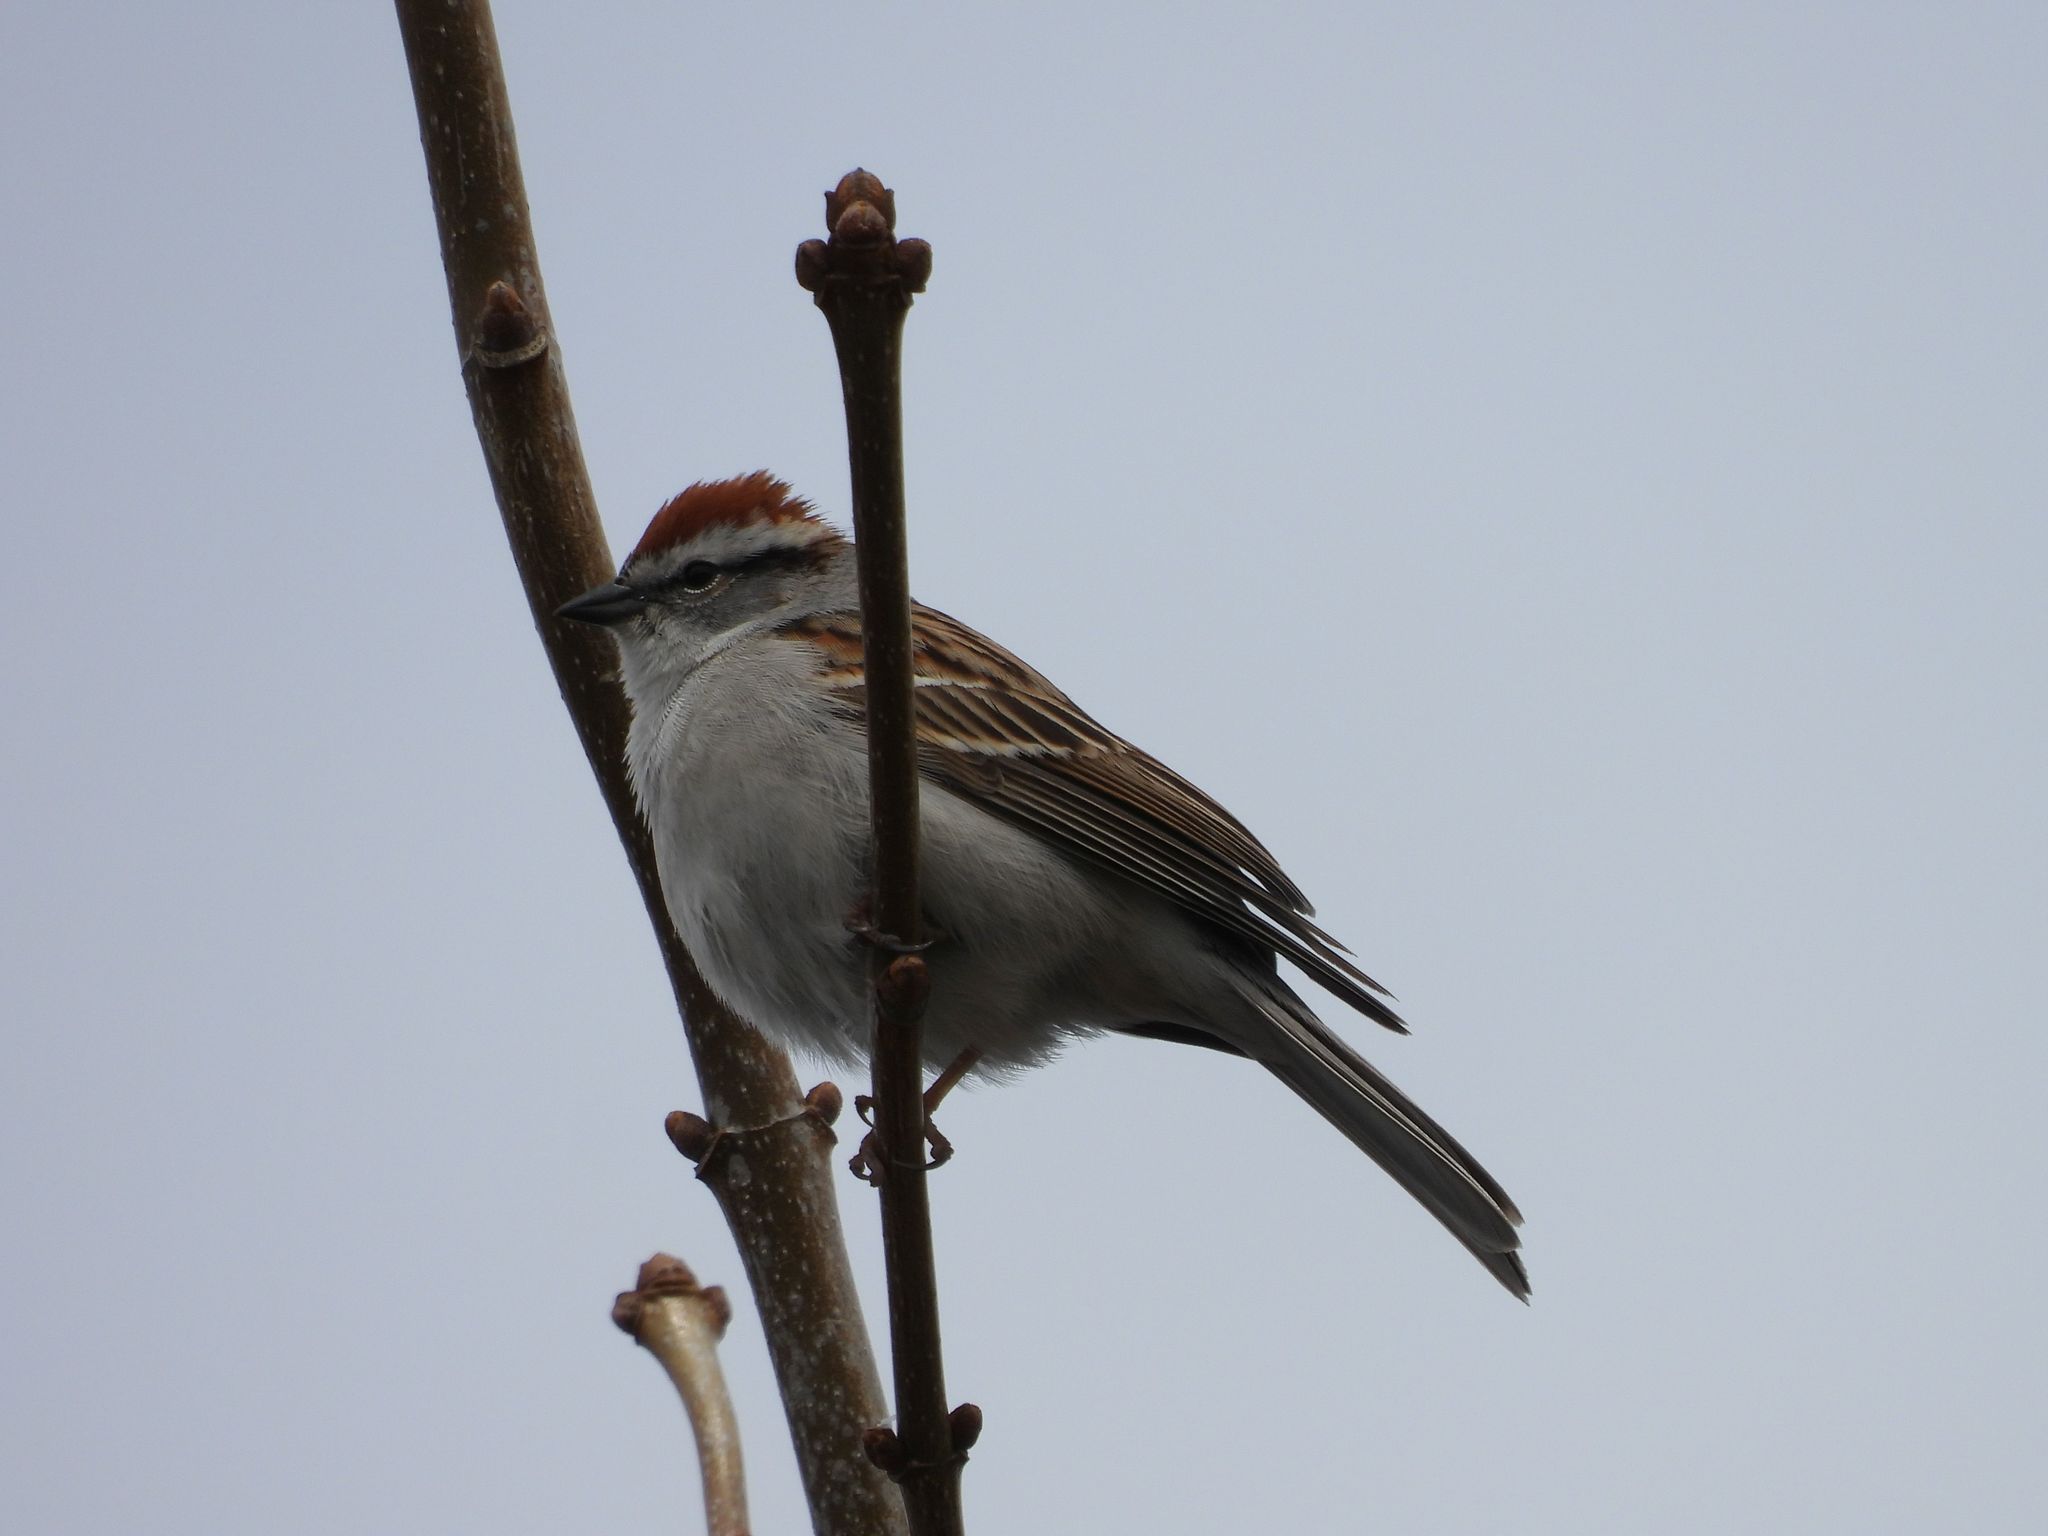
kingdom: Animalia
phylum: Chordata
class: Aves
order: Passeriformes
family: Passerellidae
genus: Spizella
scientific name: Spizella passerina
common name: Chipping sparrow
